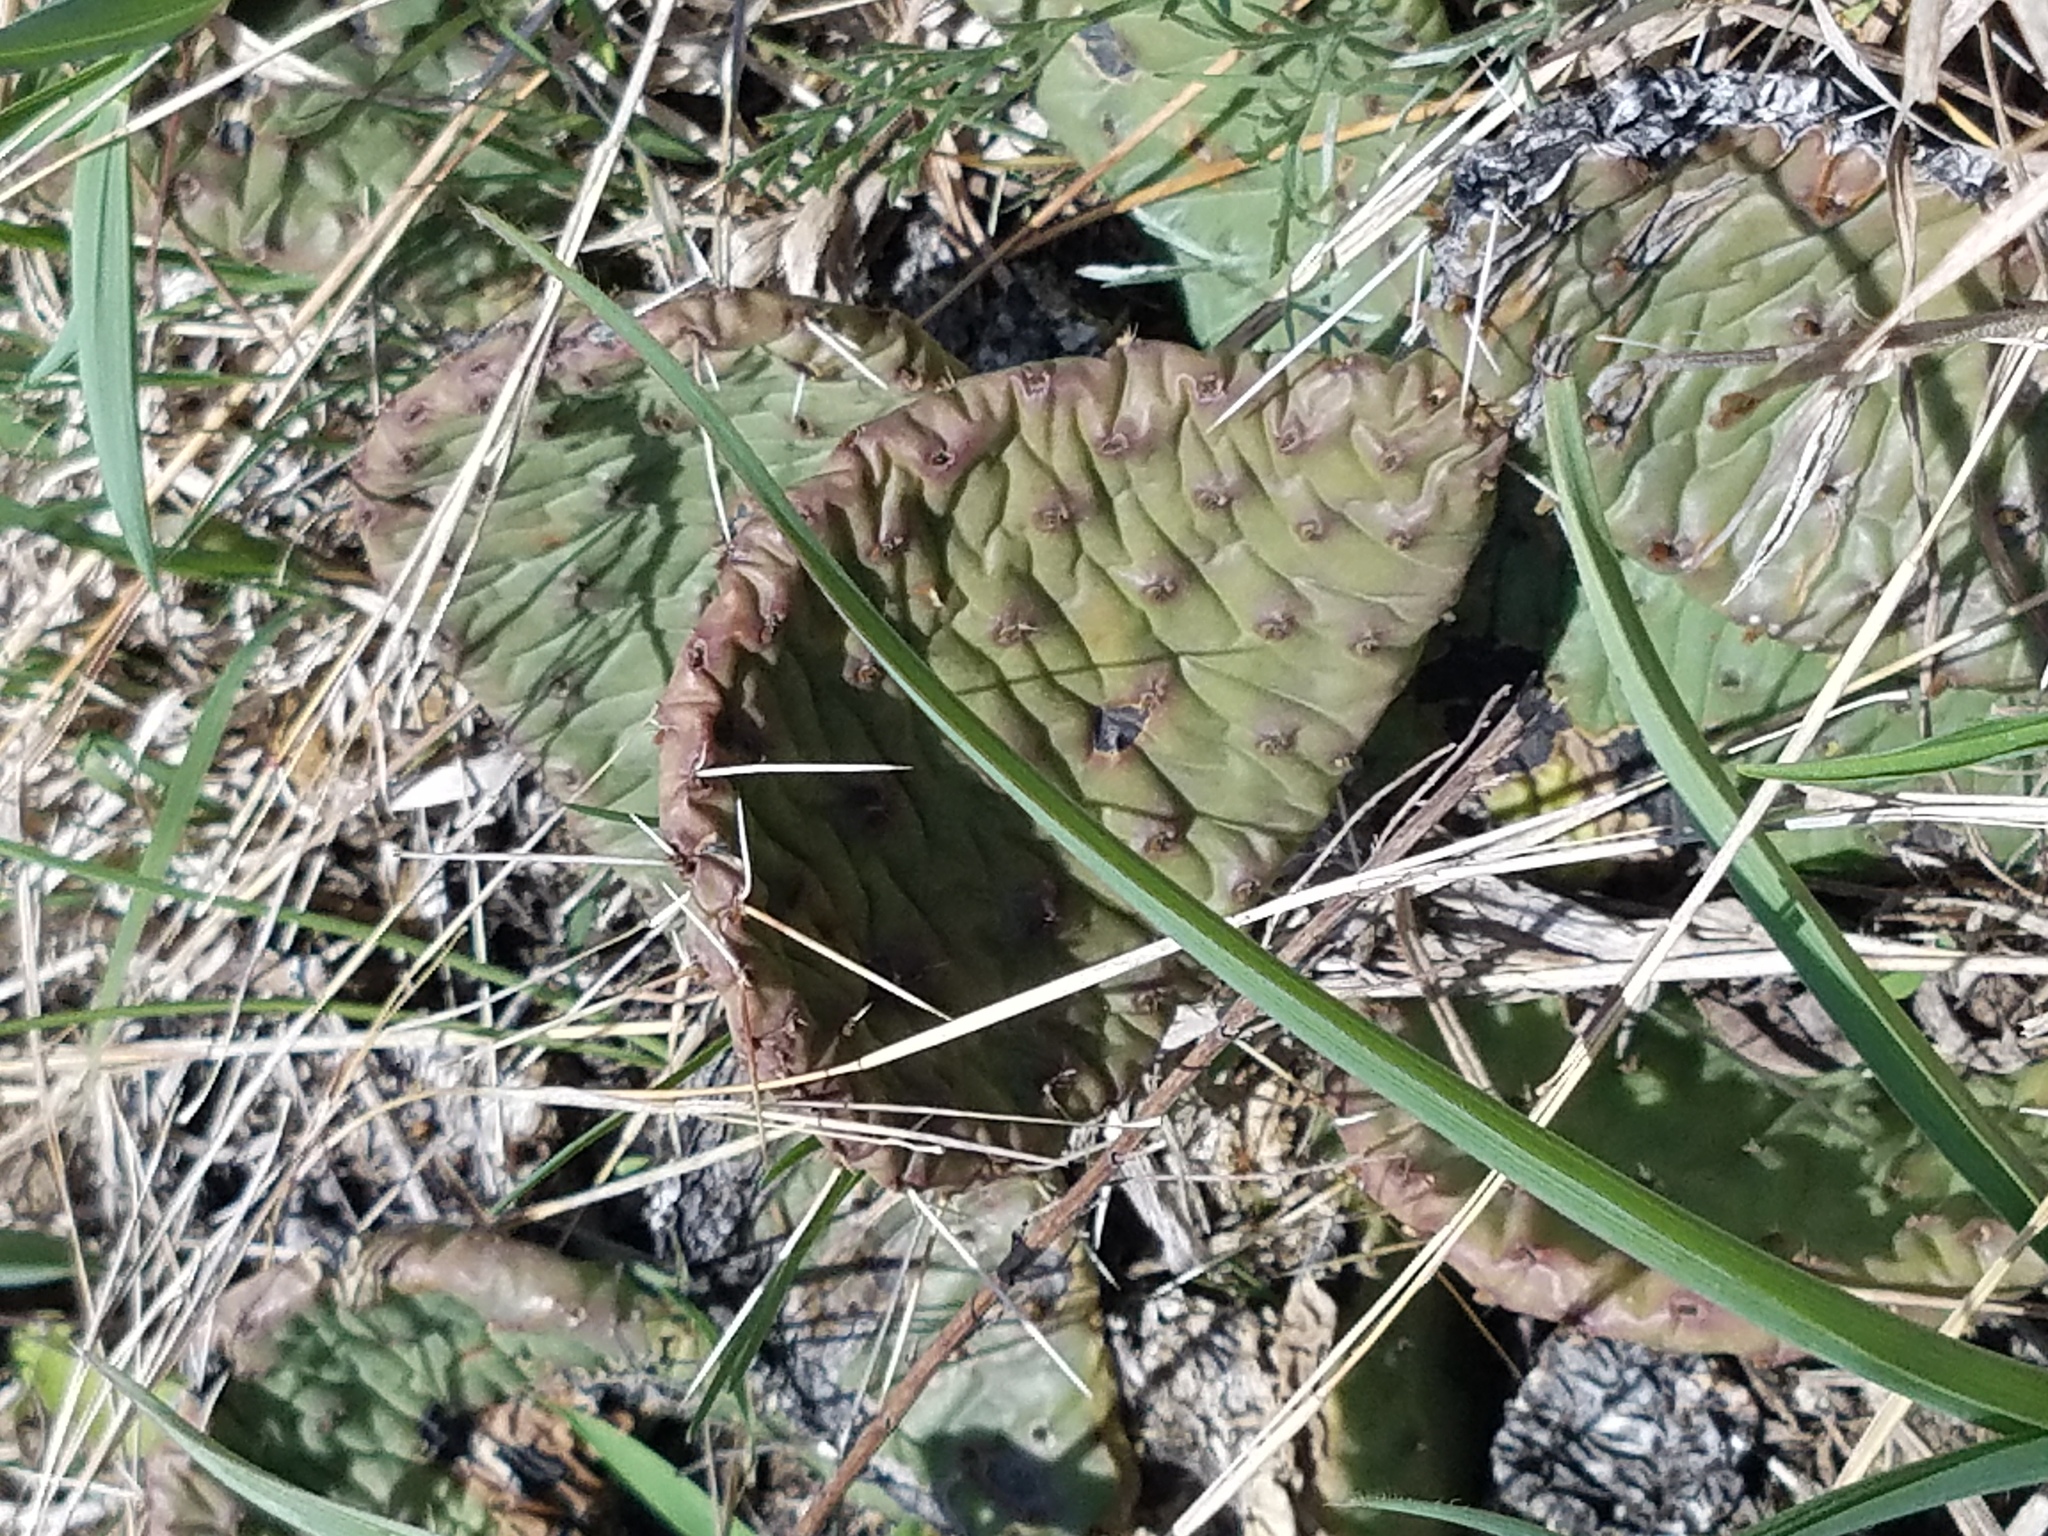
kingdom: Plantae
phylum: Tracheophyta
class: Magnoliopsida
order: Caryophyllales
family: Cactaceae
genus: Opuntia
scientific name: Opuntia humifusa
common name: Eastern prickly-pear
